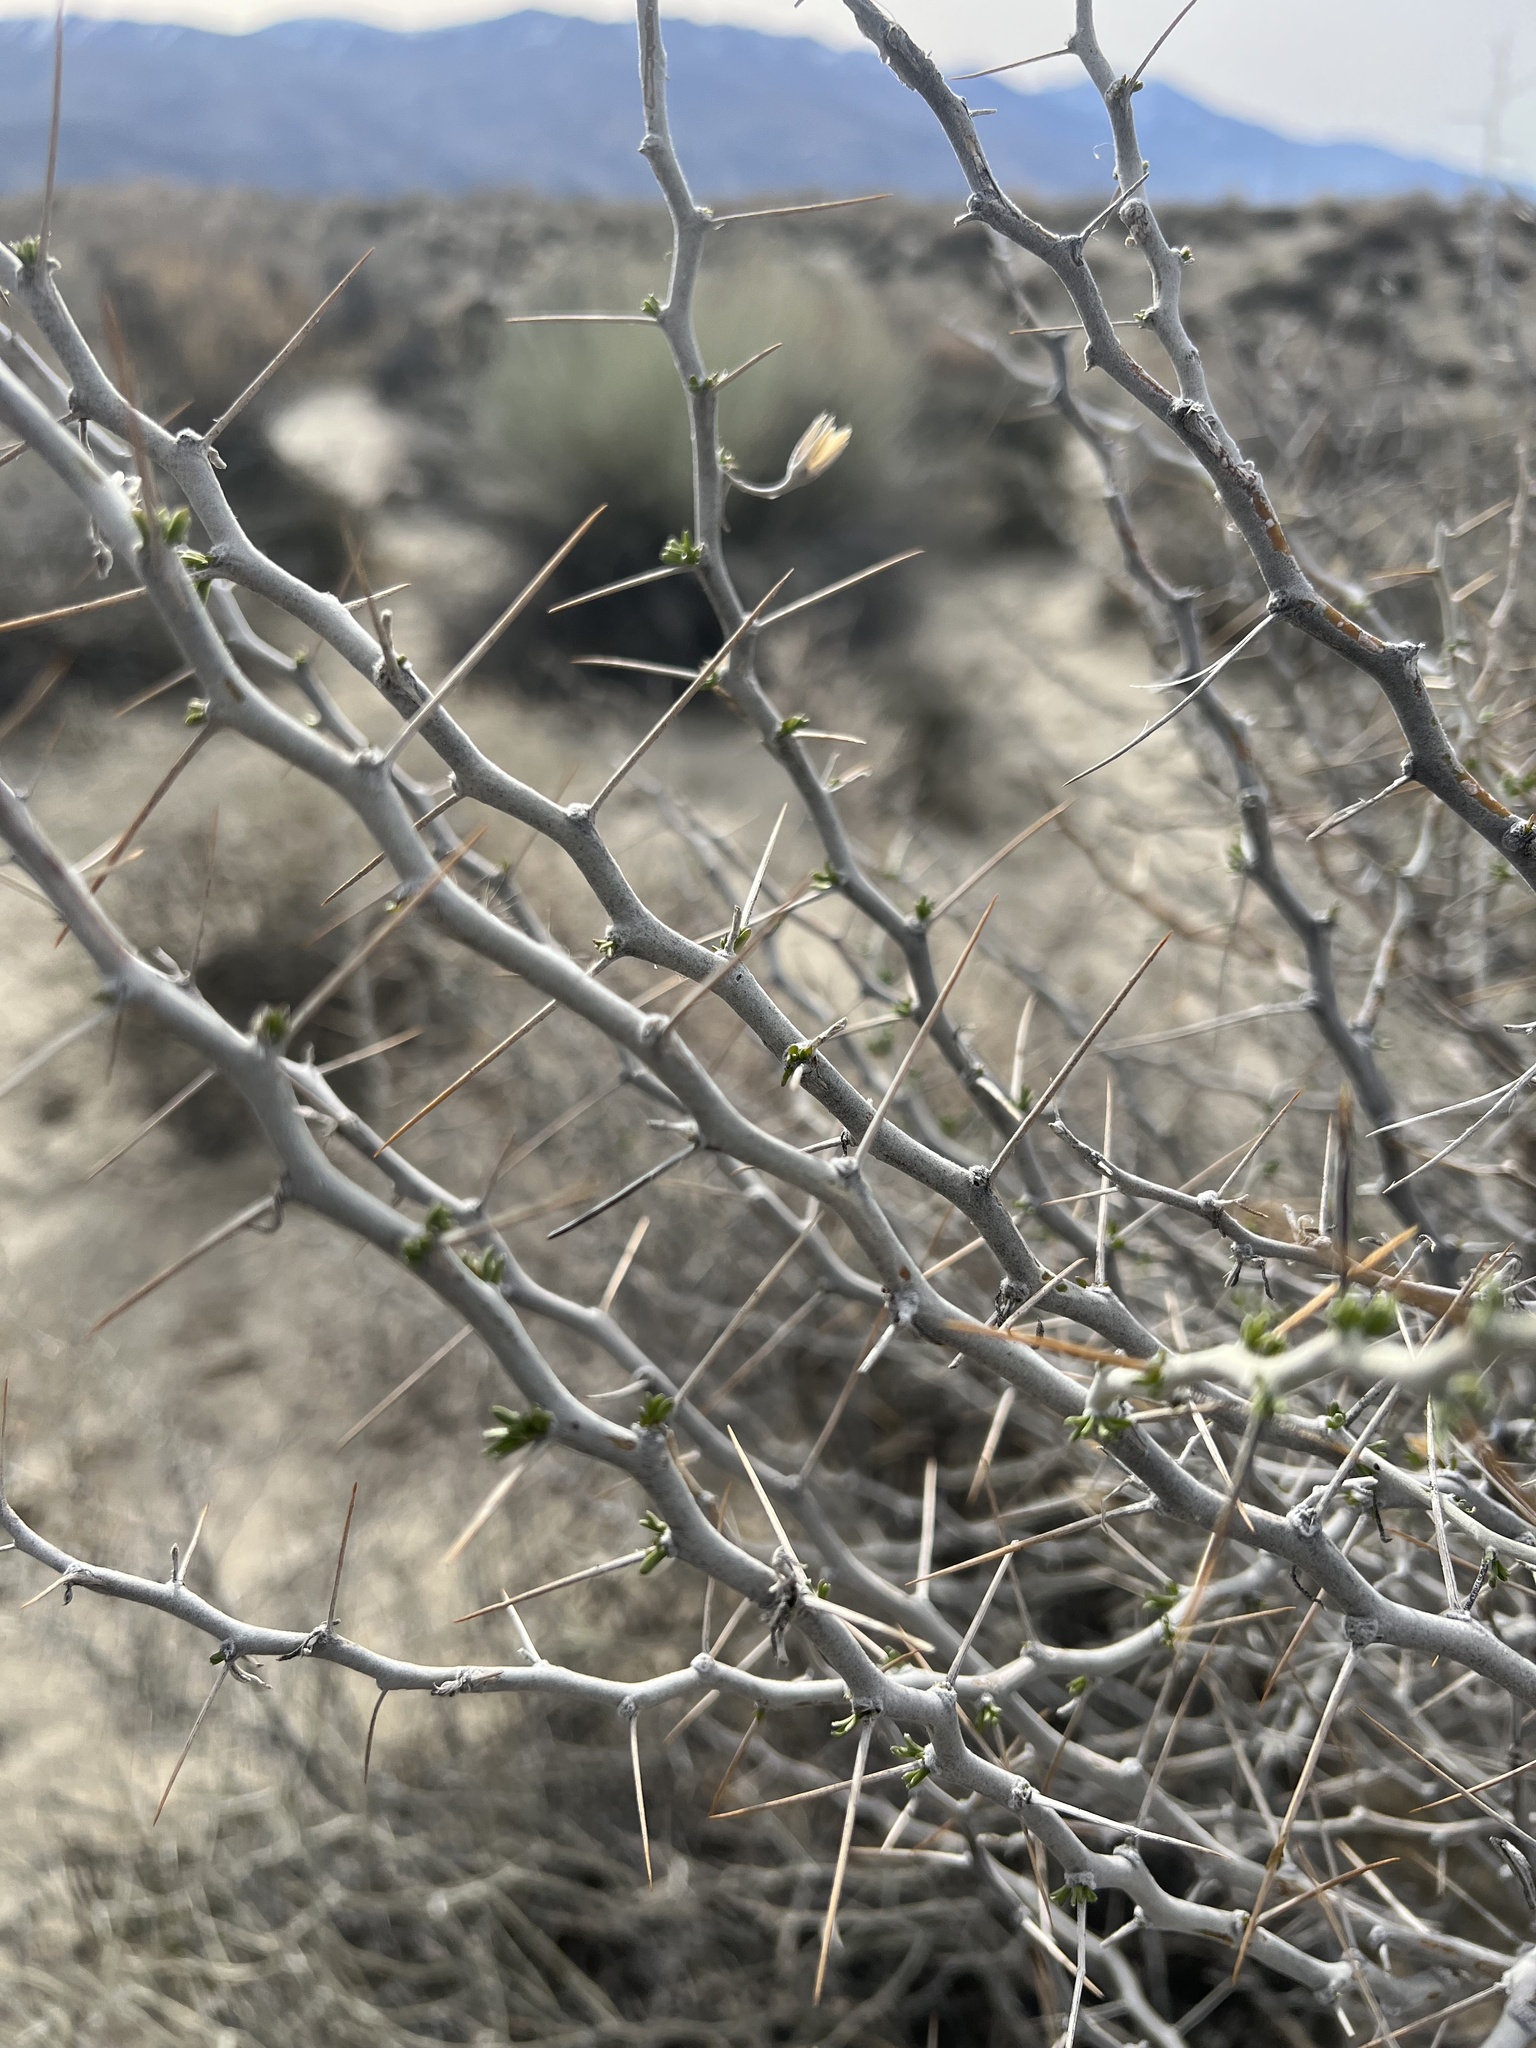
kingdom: Plantae
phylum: Tracheophyta
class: Magnoliopsida
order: Asterales
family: Asteraceae
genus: Tetradymia
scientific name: Tetradymia axillaris
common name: Long-spine horsebrush
